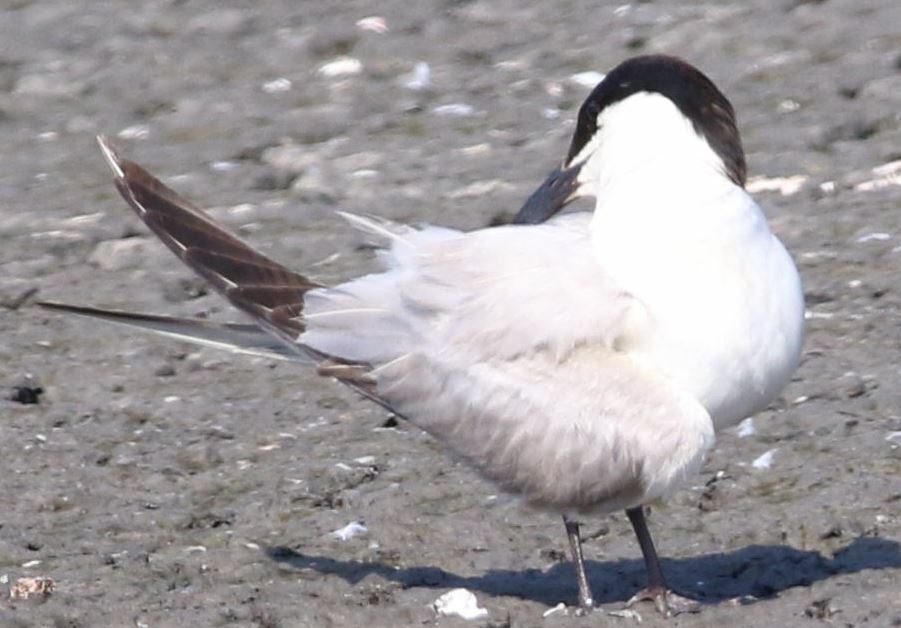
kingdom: Animalia
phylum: Chordata
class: Aves
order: Charadriiformes
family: Laridae
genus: Gelochelidon
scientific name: Gelochelidon nilotica
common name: Gull-billed tern
